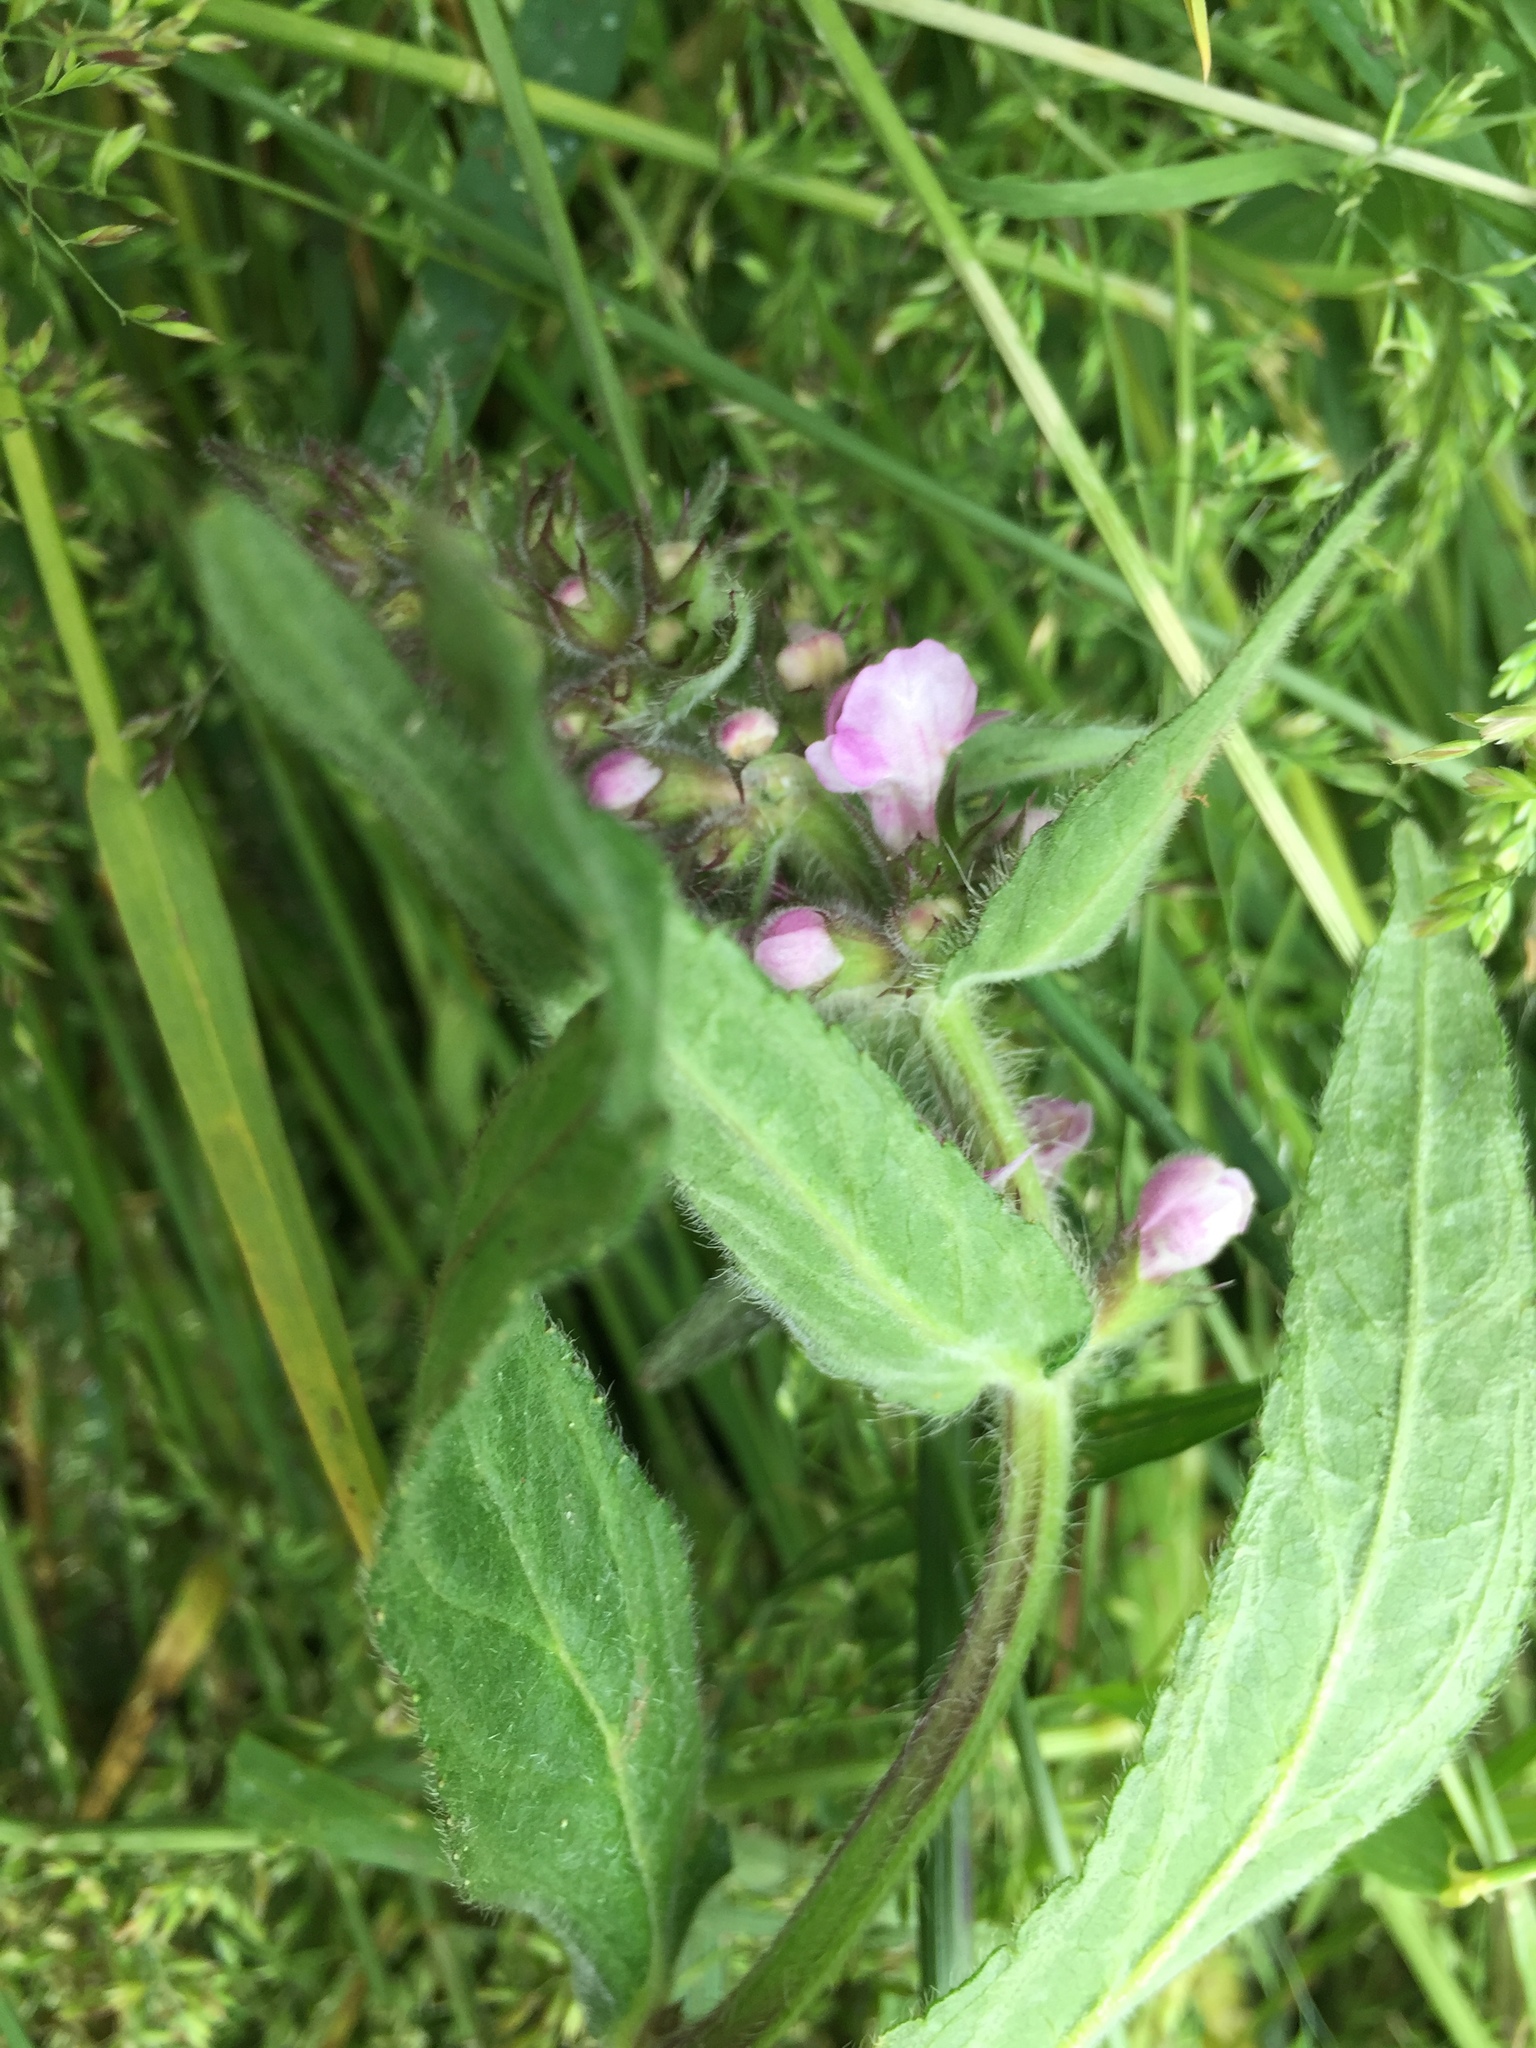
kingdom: Plantae
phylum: Tracheophyta
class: Magnoliopsida
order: Lamiales
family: Lamiaceae
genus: Stachys
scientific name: Stachys palustris
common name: Marsh woundwort
